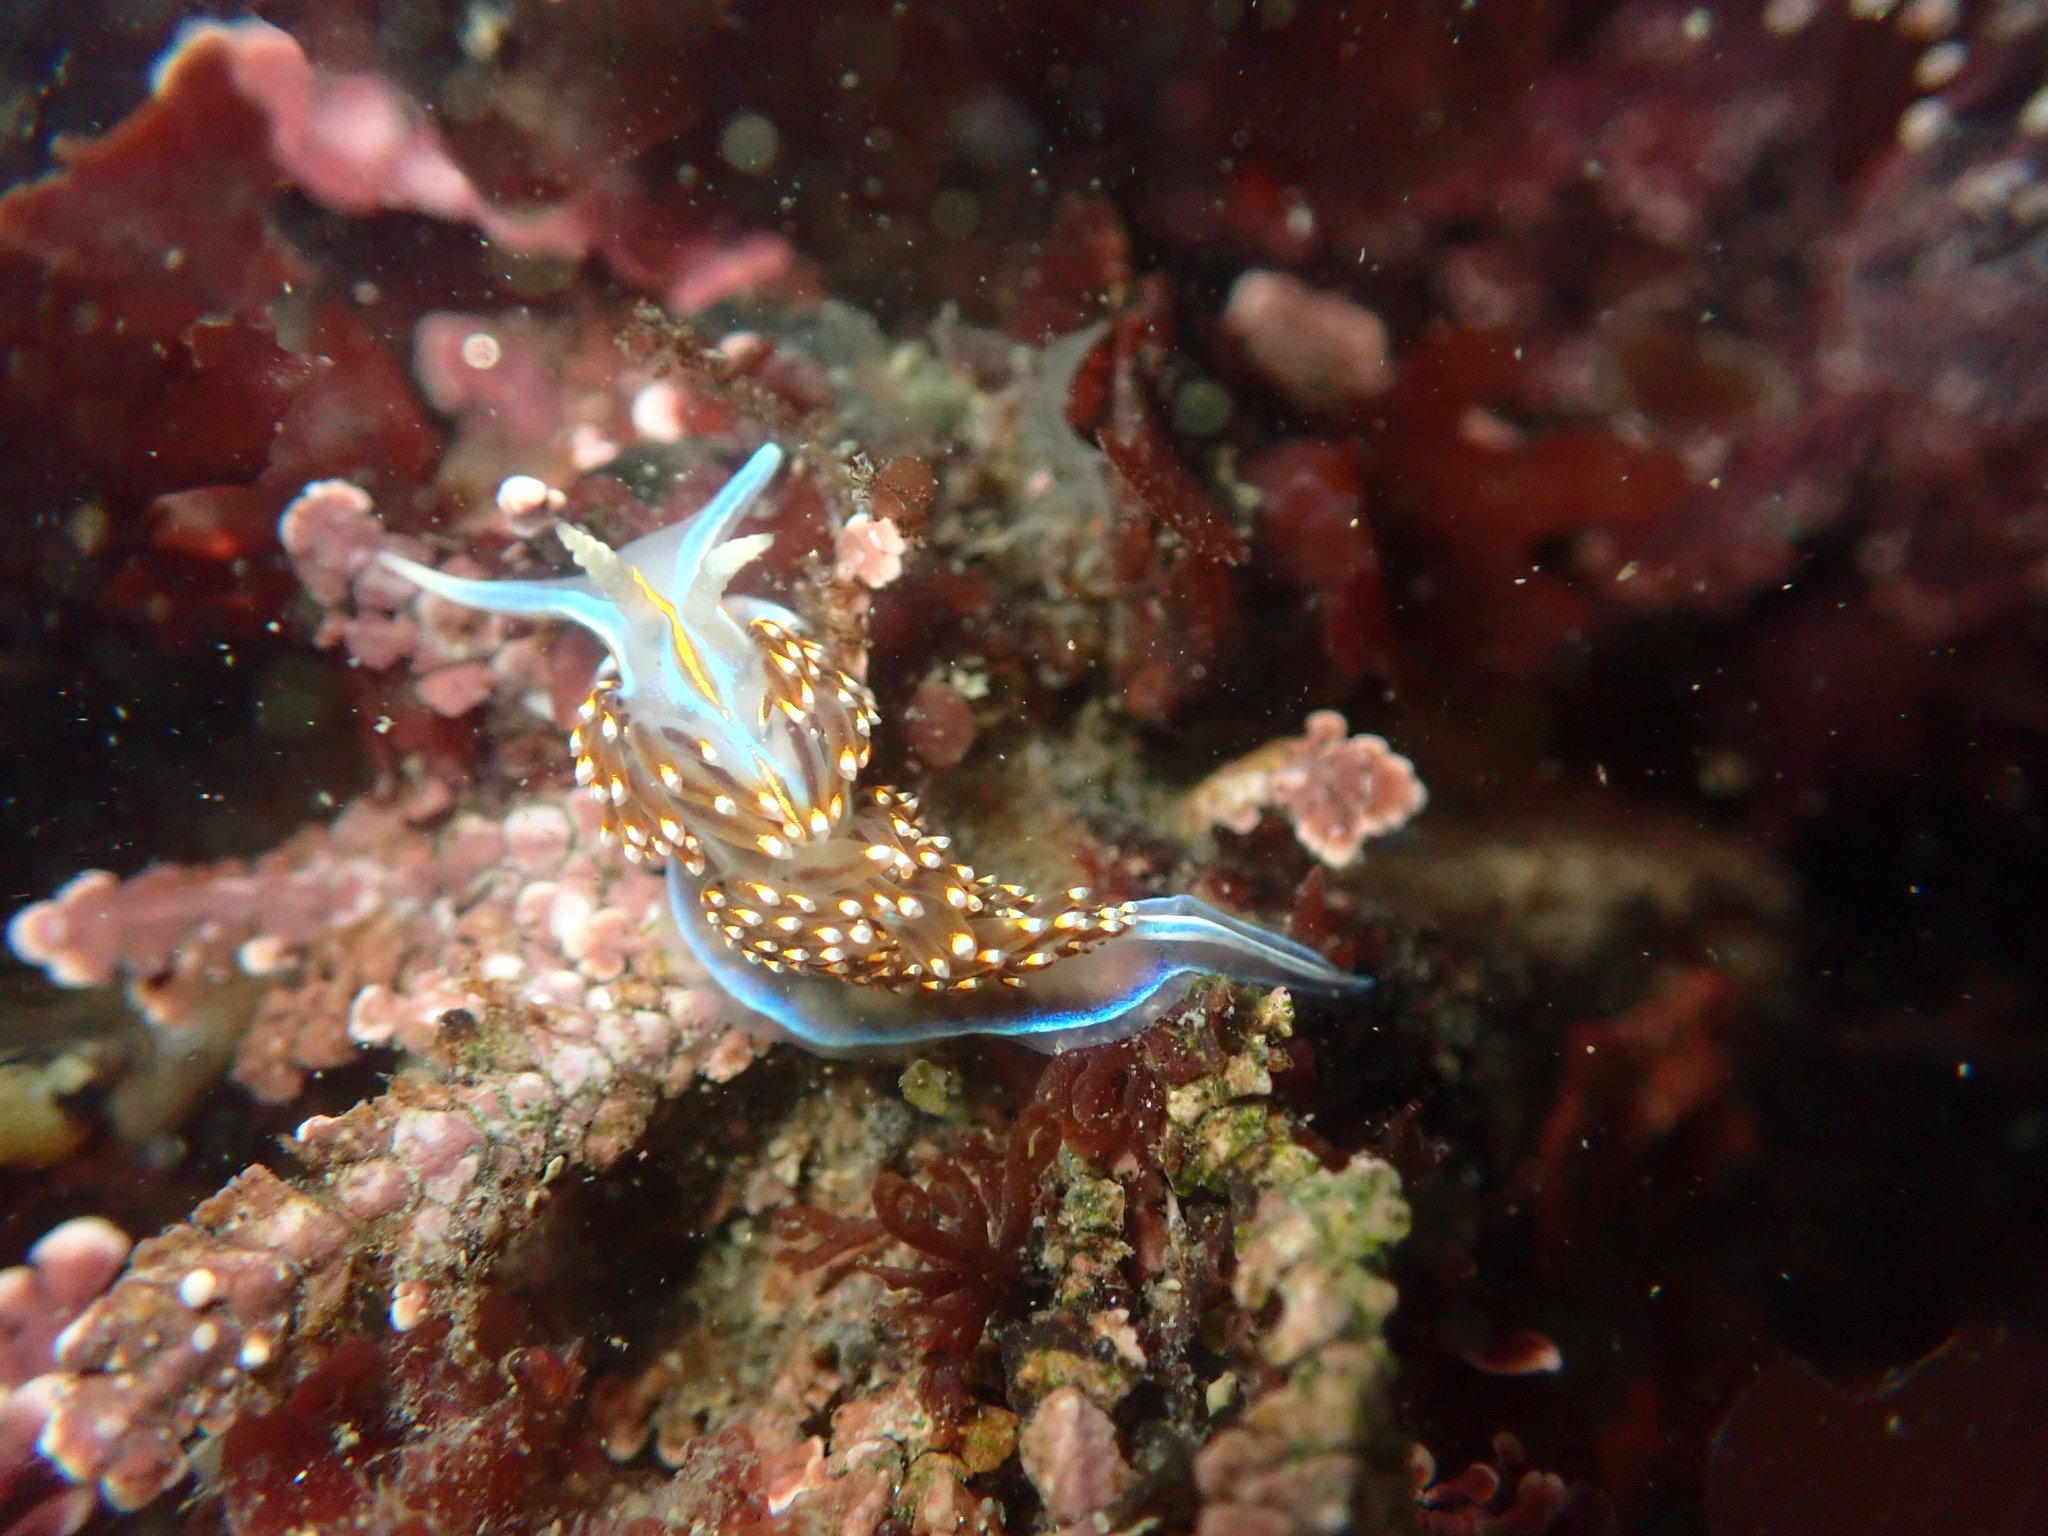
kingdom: Animalia
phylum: Mollusca
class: Gastropoda
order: Nudibranchia
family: Myrrhinidae
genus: Hermissenda
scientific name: Hermissenda opalescens
